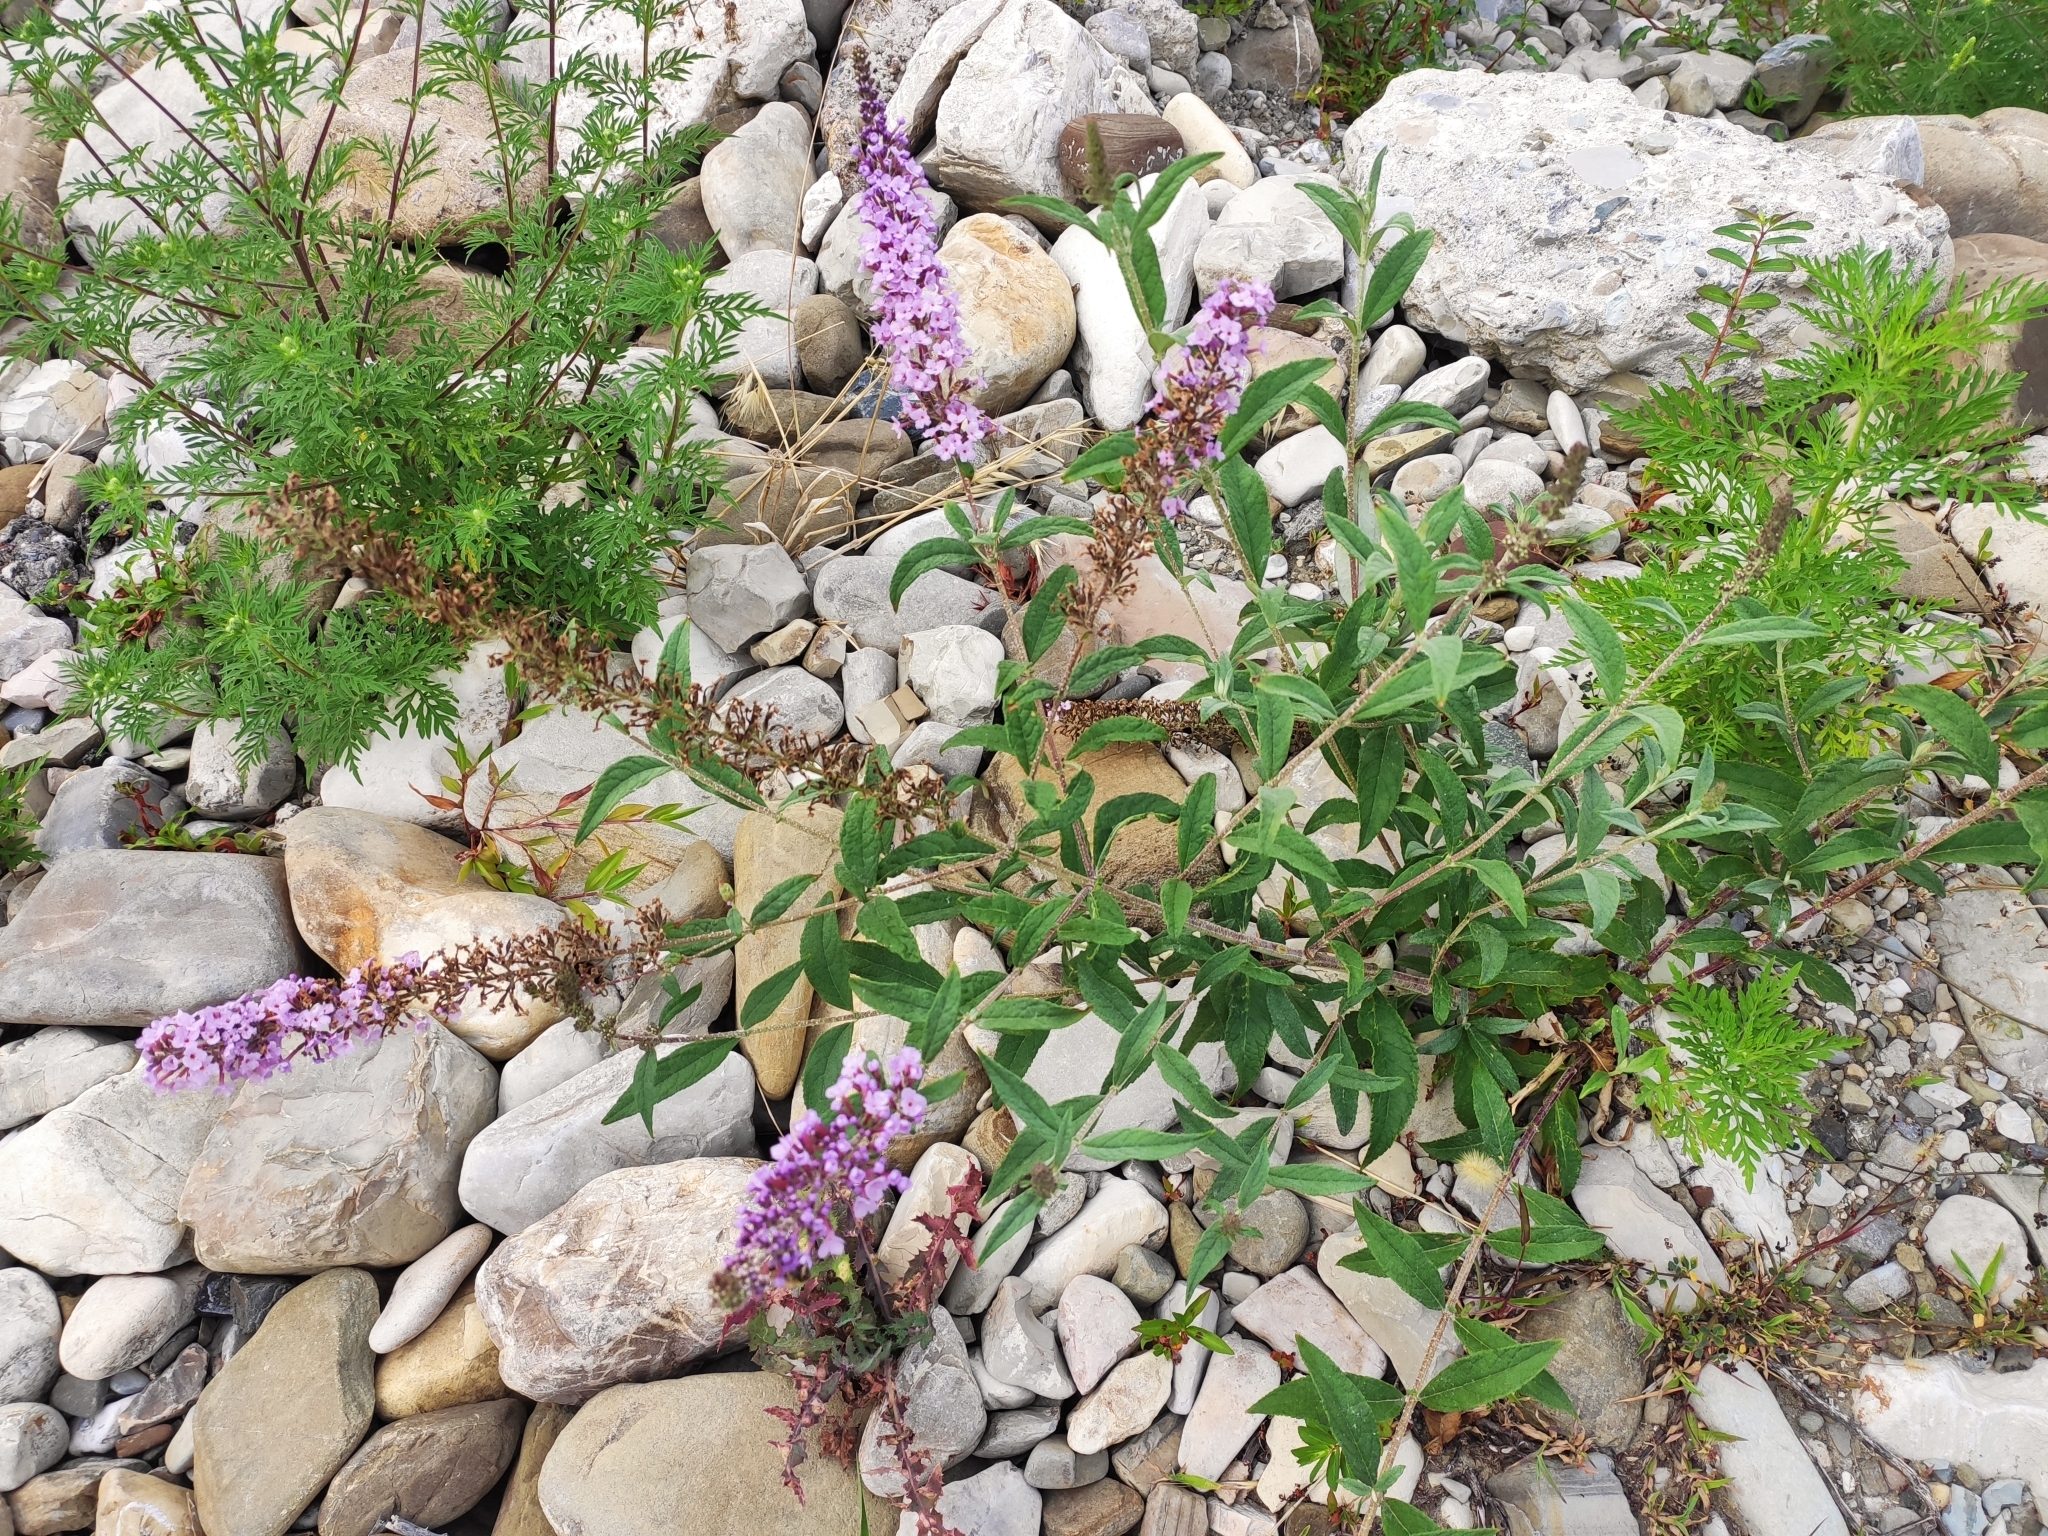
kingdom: Plantae
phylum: Tracheophyta
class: Magnoliopsida
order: Lamiales
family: Scrophulariaceae
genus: Buddleja
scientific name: Buddleja davidii
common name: Butterfly-bush
